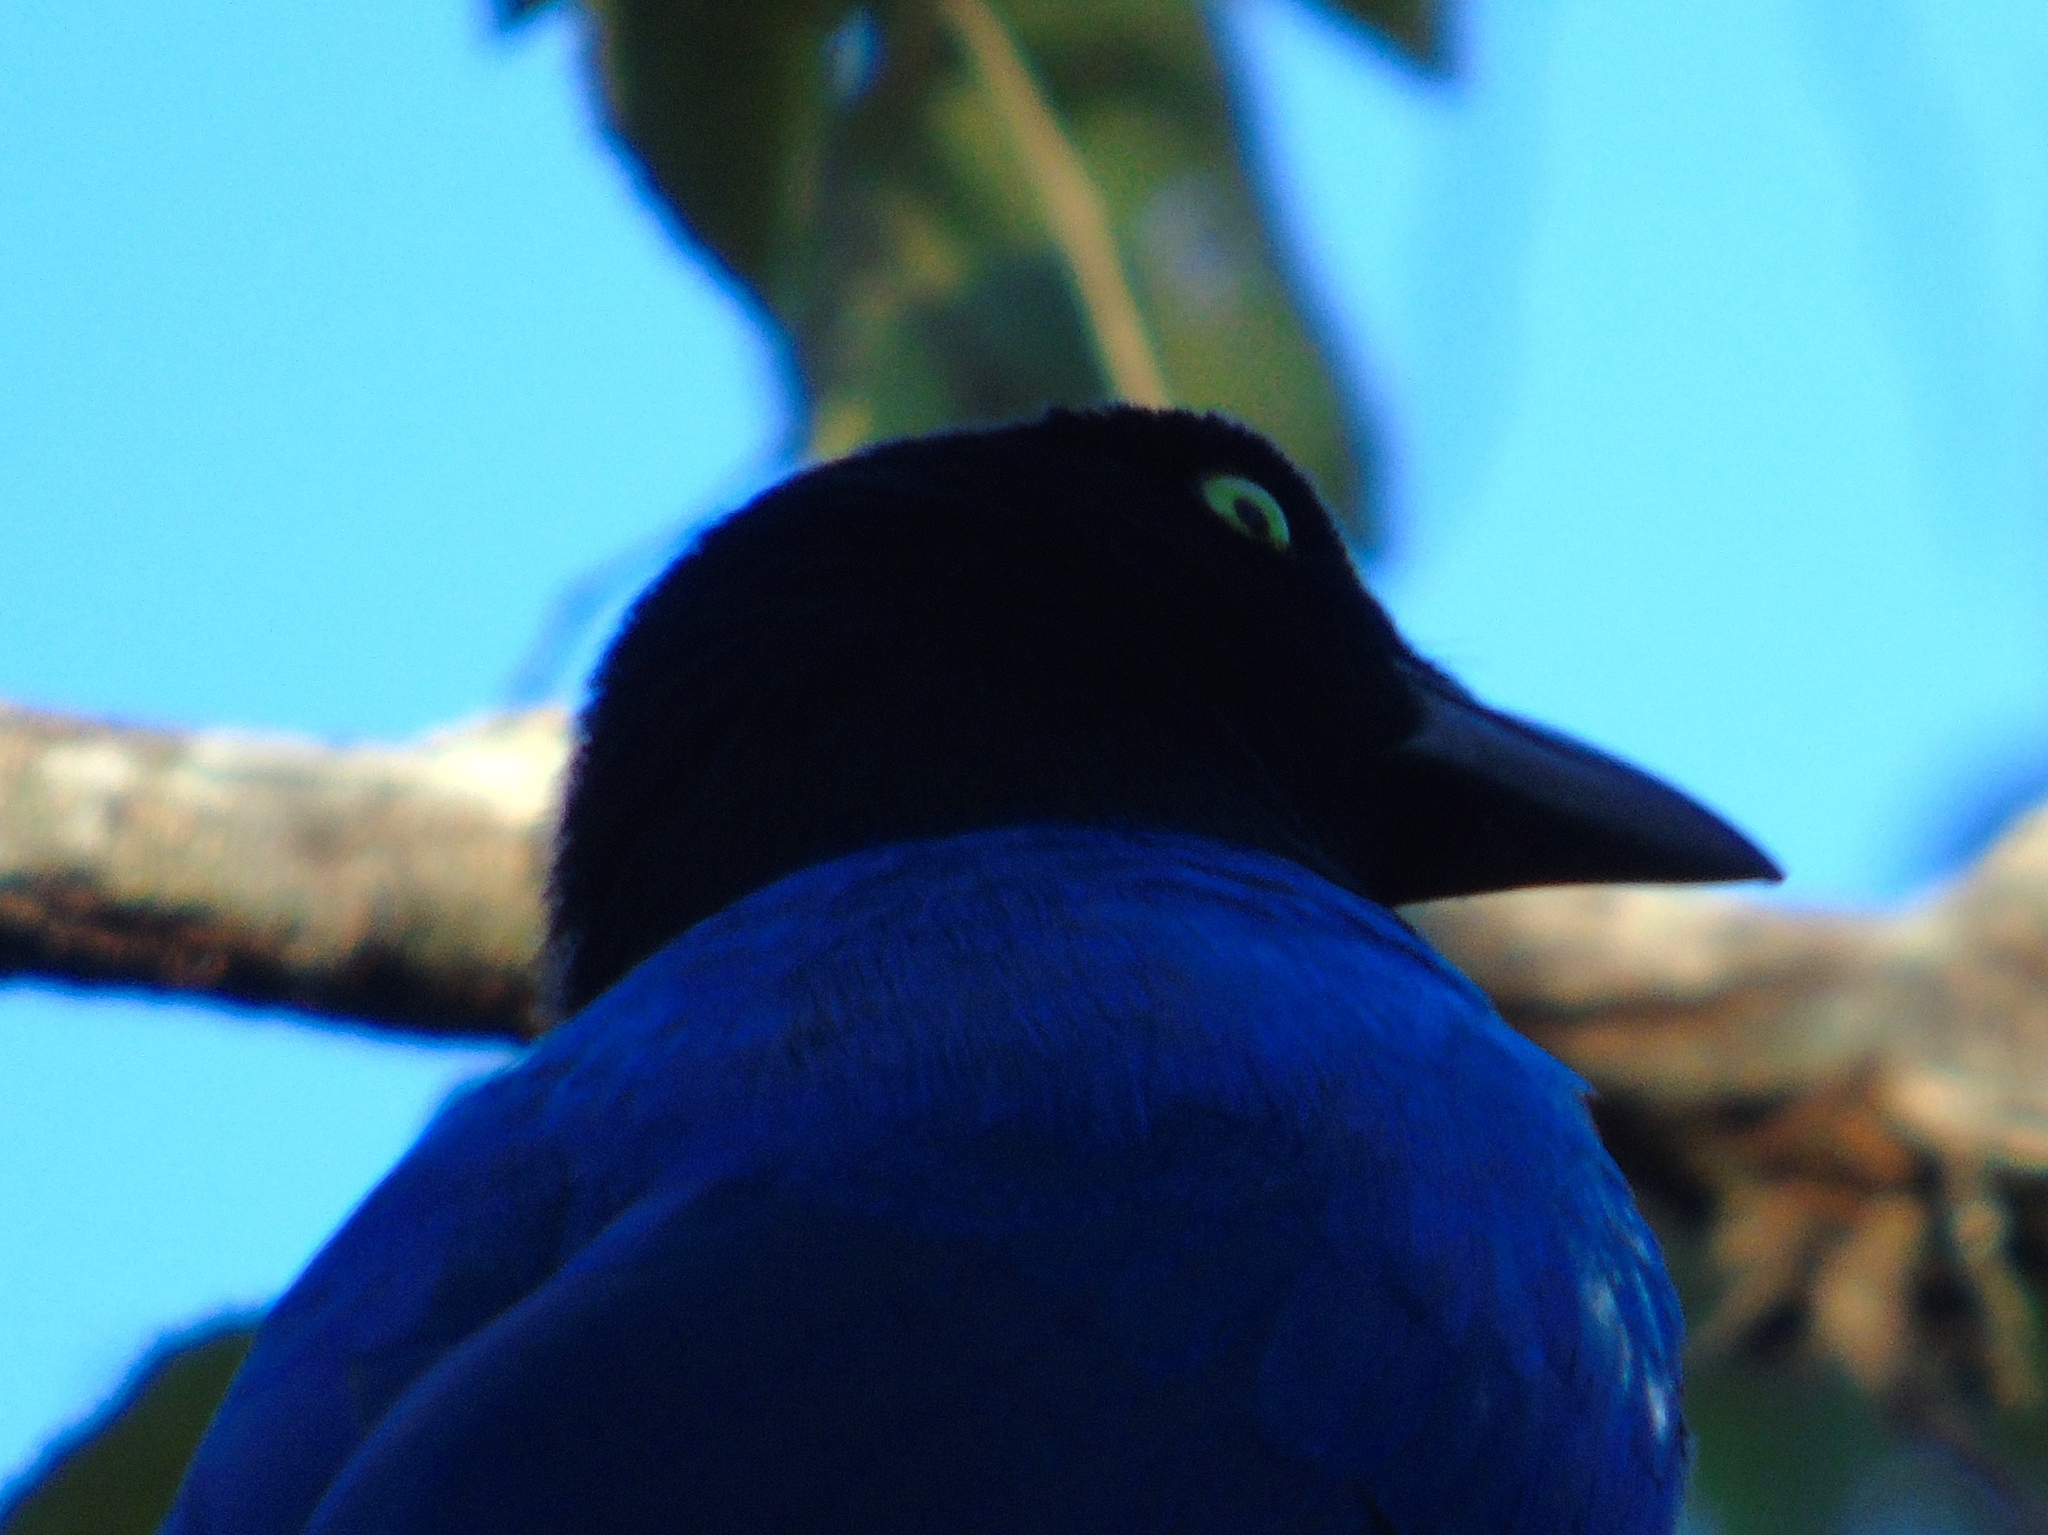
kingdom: Animalia
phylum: Chordata
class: Aves
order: Passeriformes
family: Corvidae
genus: Cyanocorax
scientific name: Cyanocorax beecheii
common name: Purplish-backed jay
